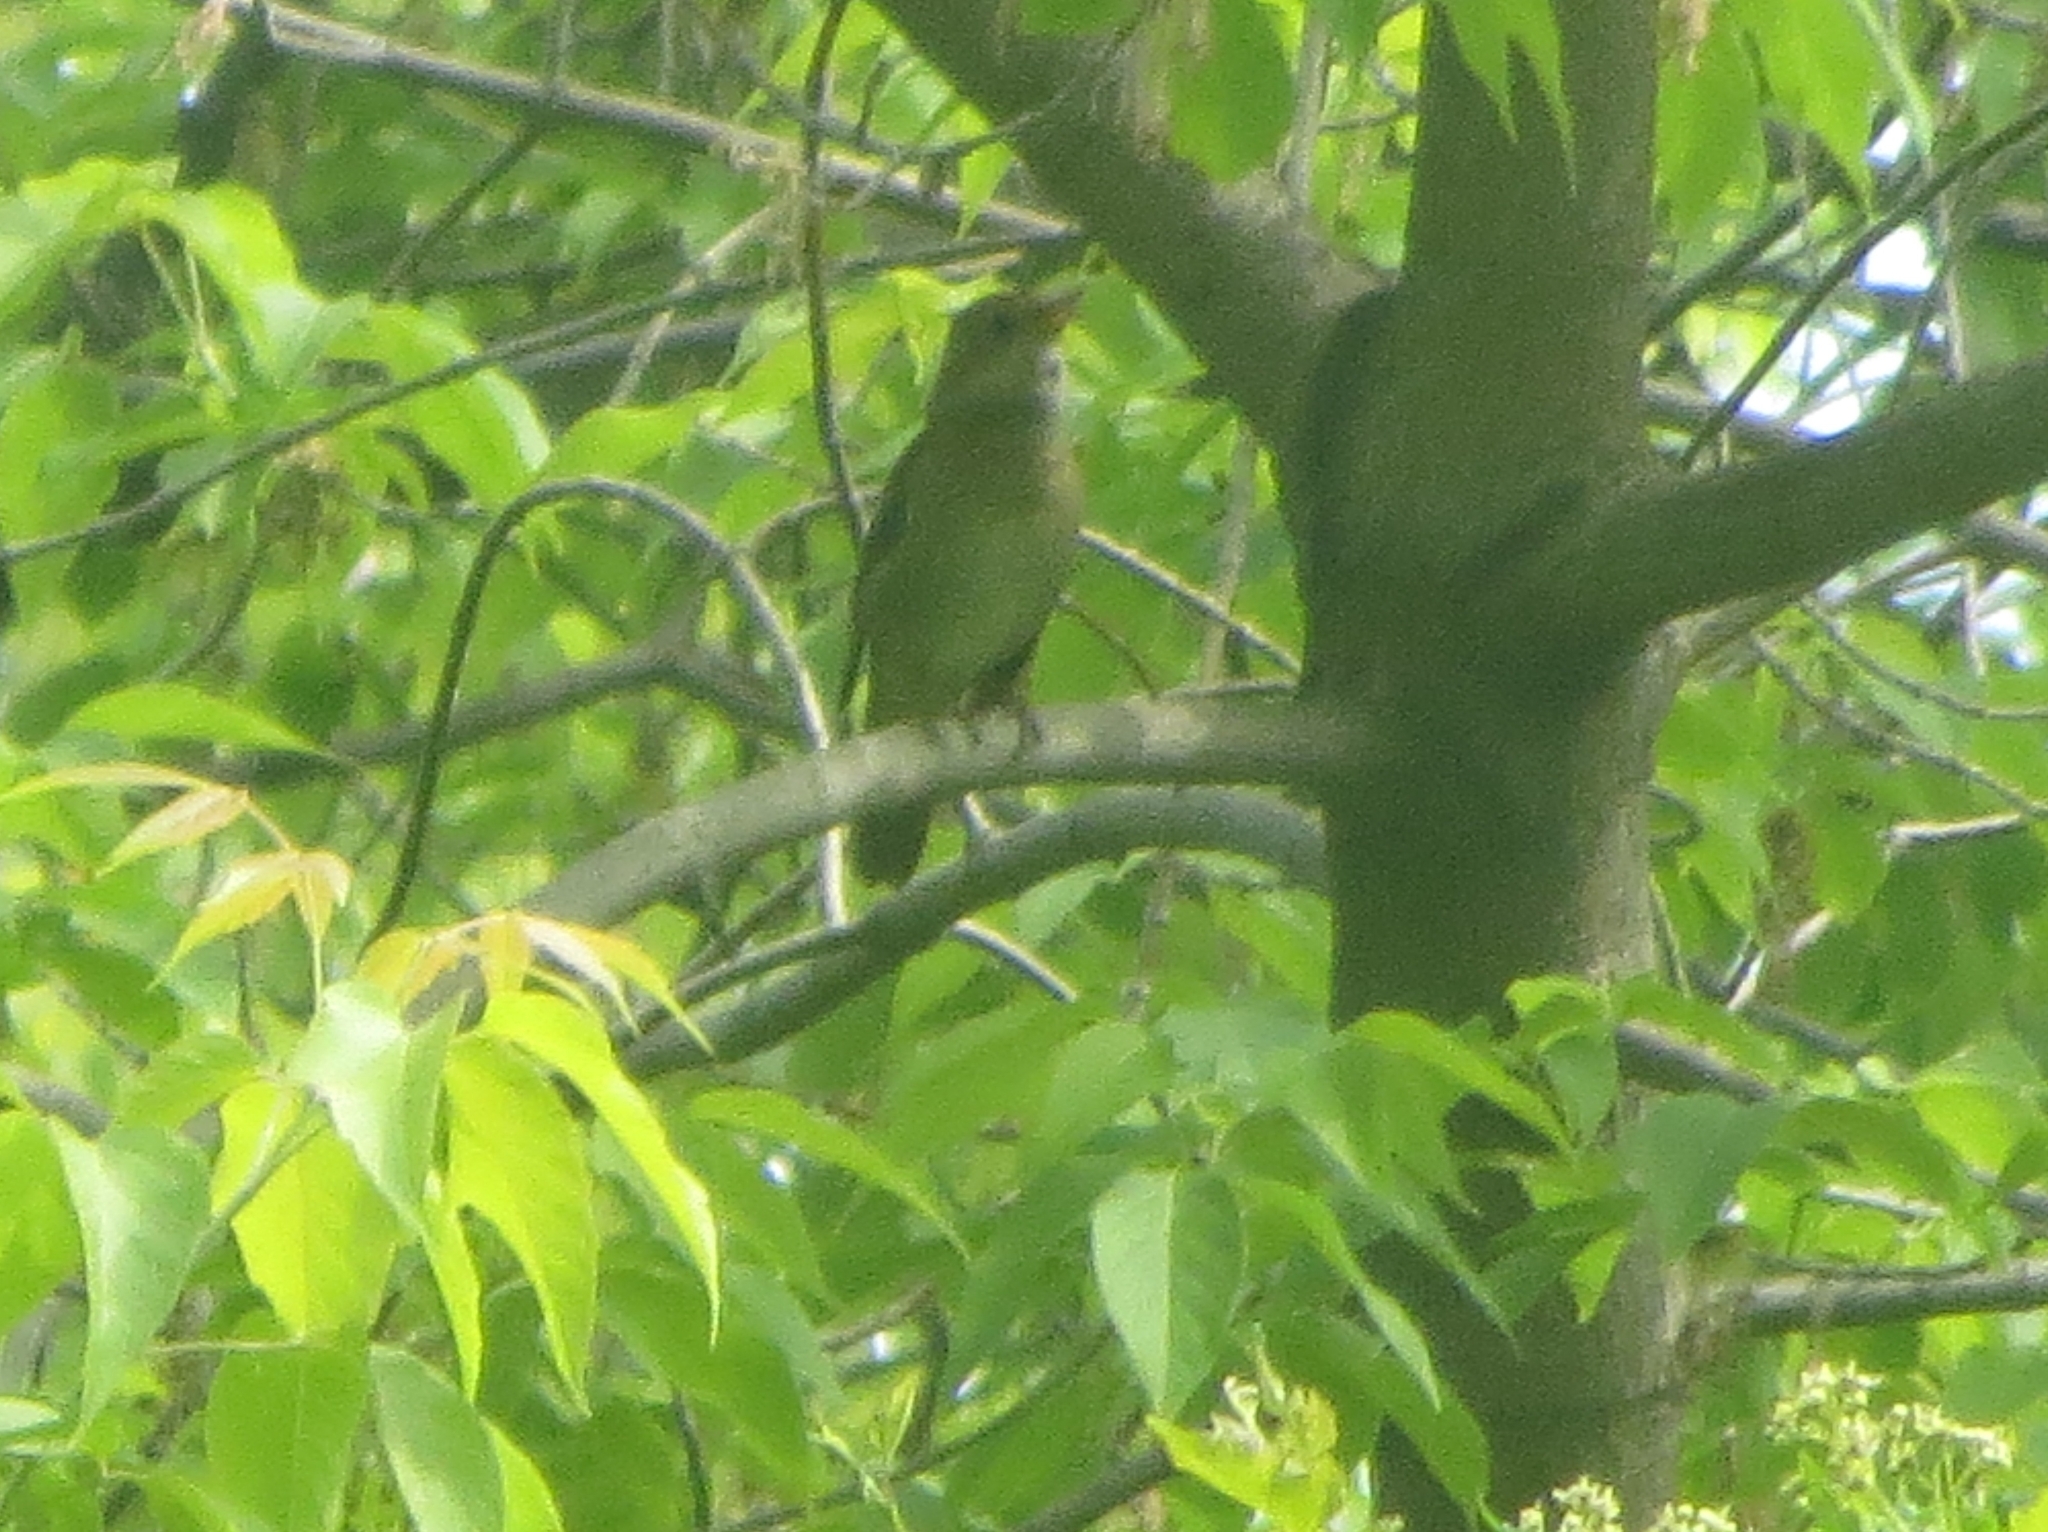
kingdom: Animalia
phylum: Chordata
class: Aves
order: Passeriformes
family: Muscicapidae
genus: Luscinia
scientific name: Luscinia luscinia
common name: Thrush nightingale
